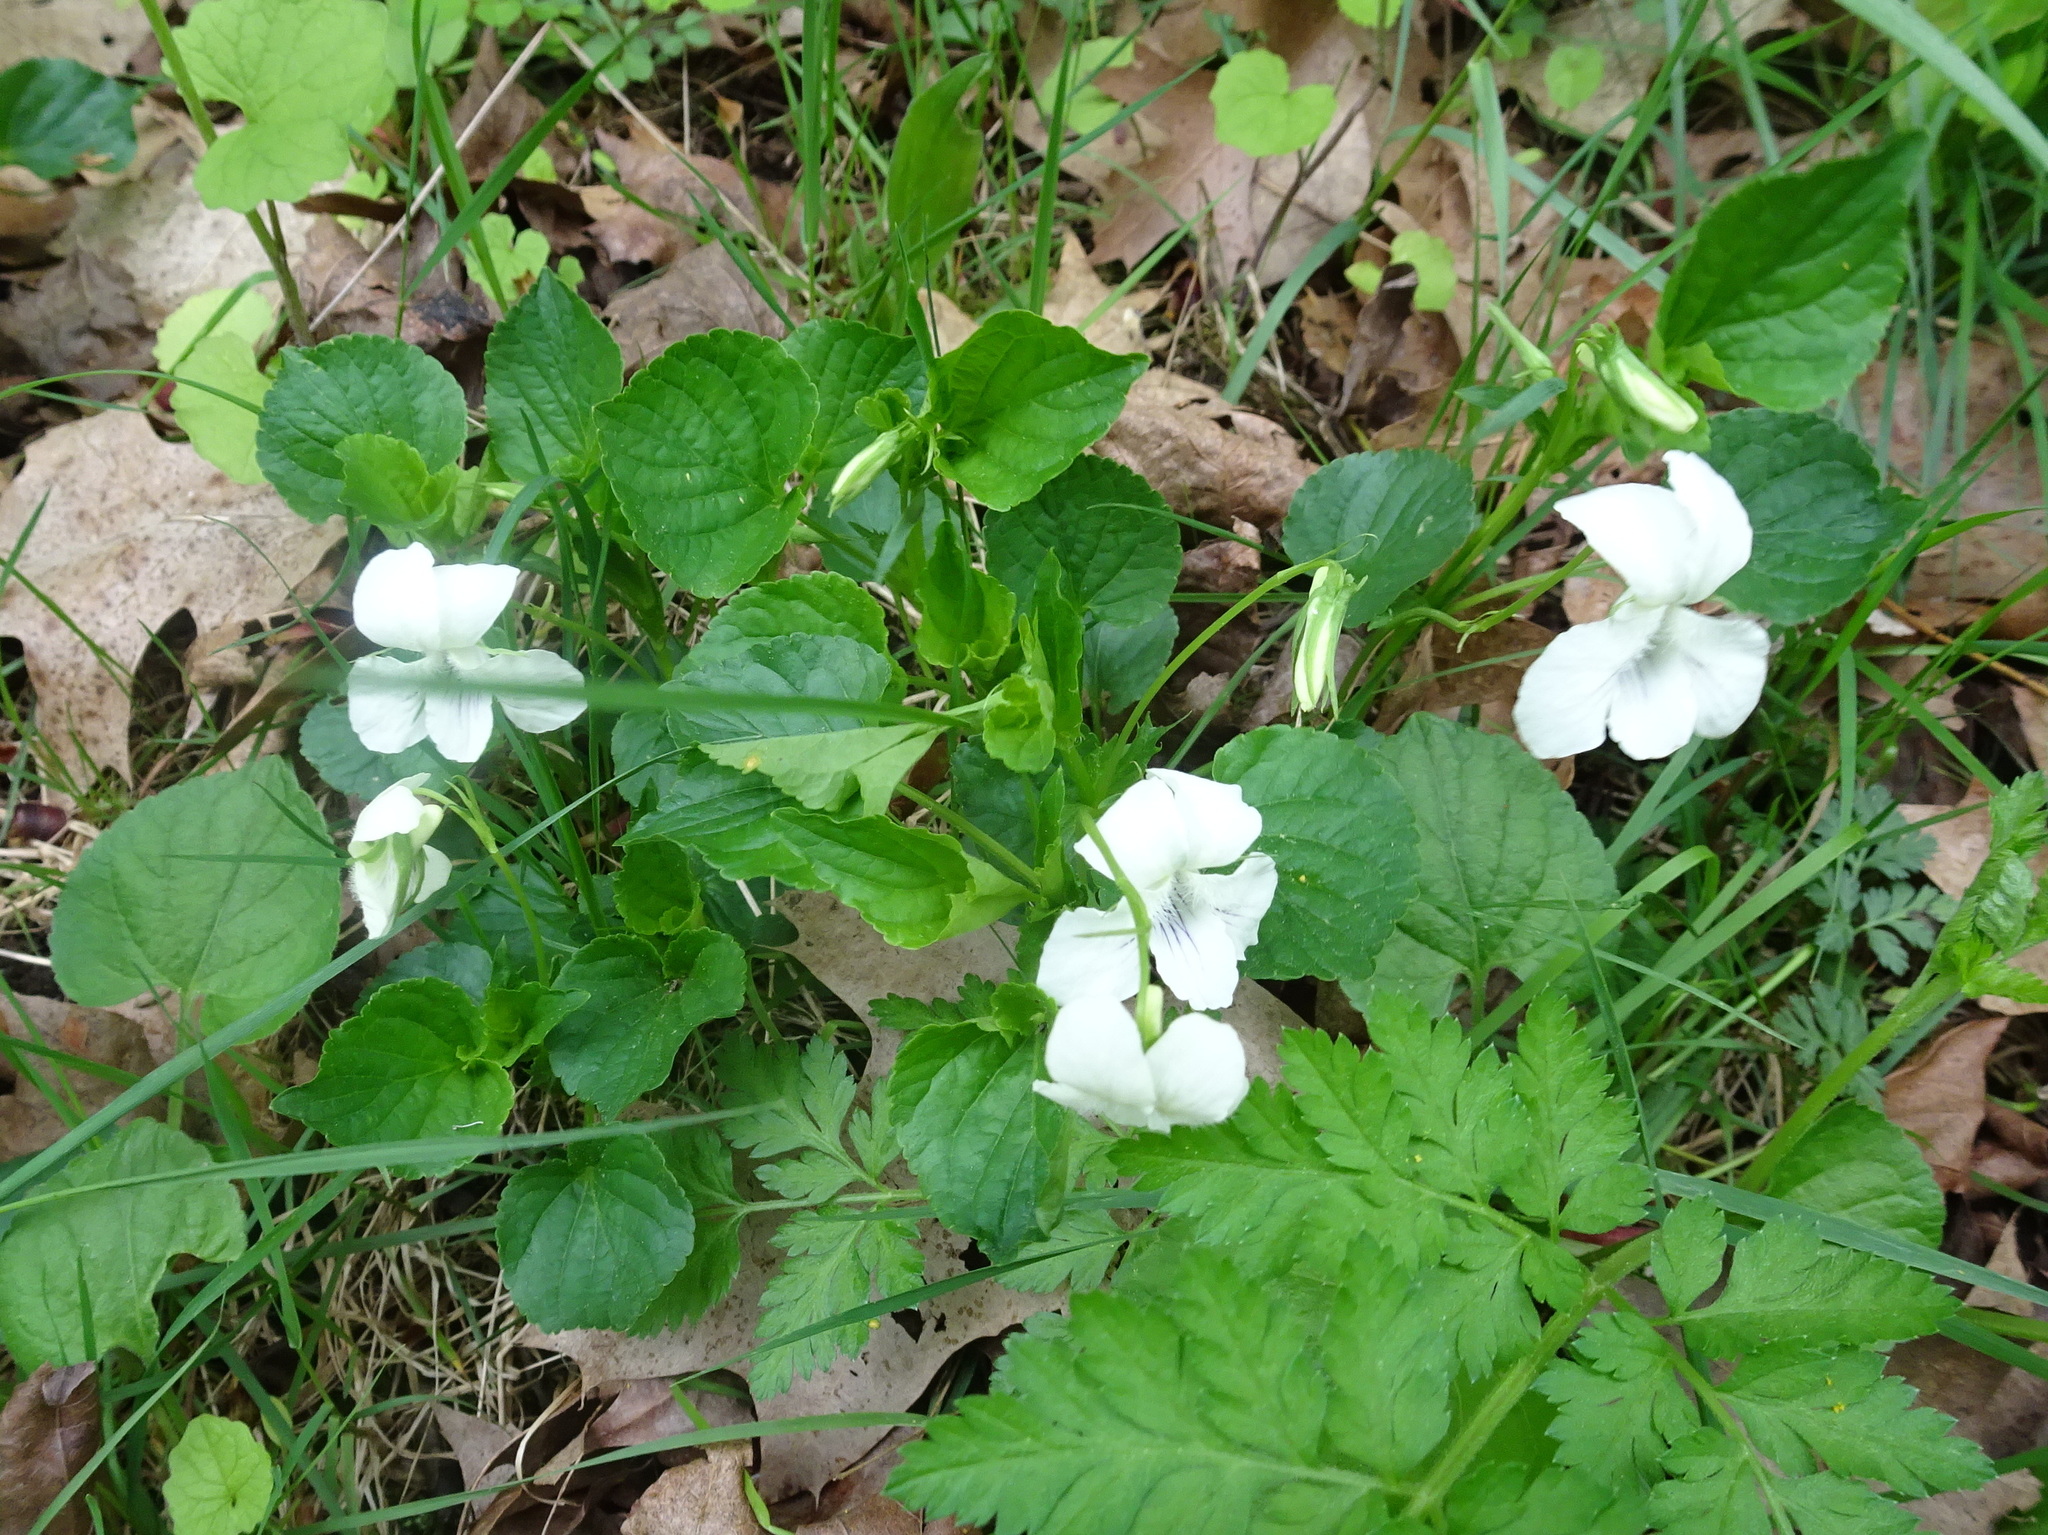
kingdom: Plantae
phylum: Tracheophyta
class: Magnoliopsida
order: Malpighiales
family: Violaceae
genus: Viola
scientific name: Viola striata
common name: Cream violet
